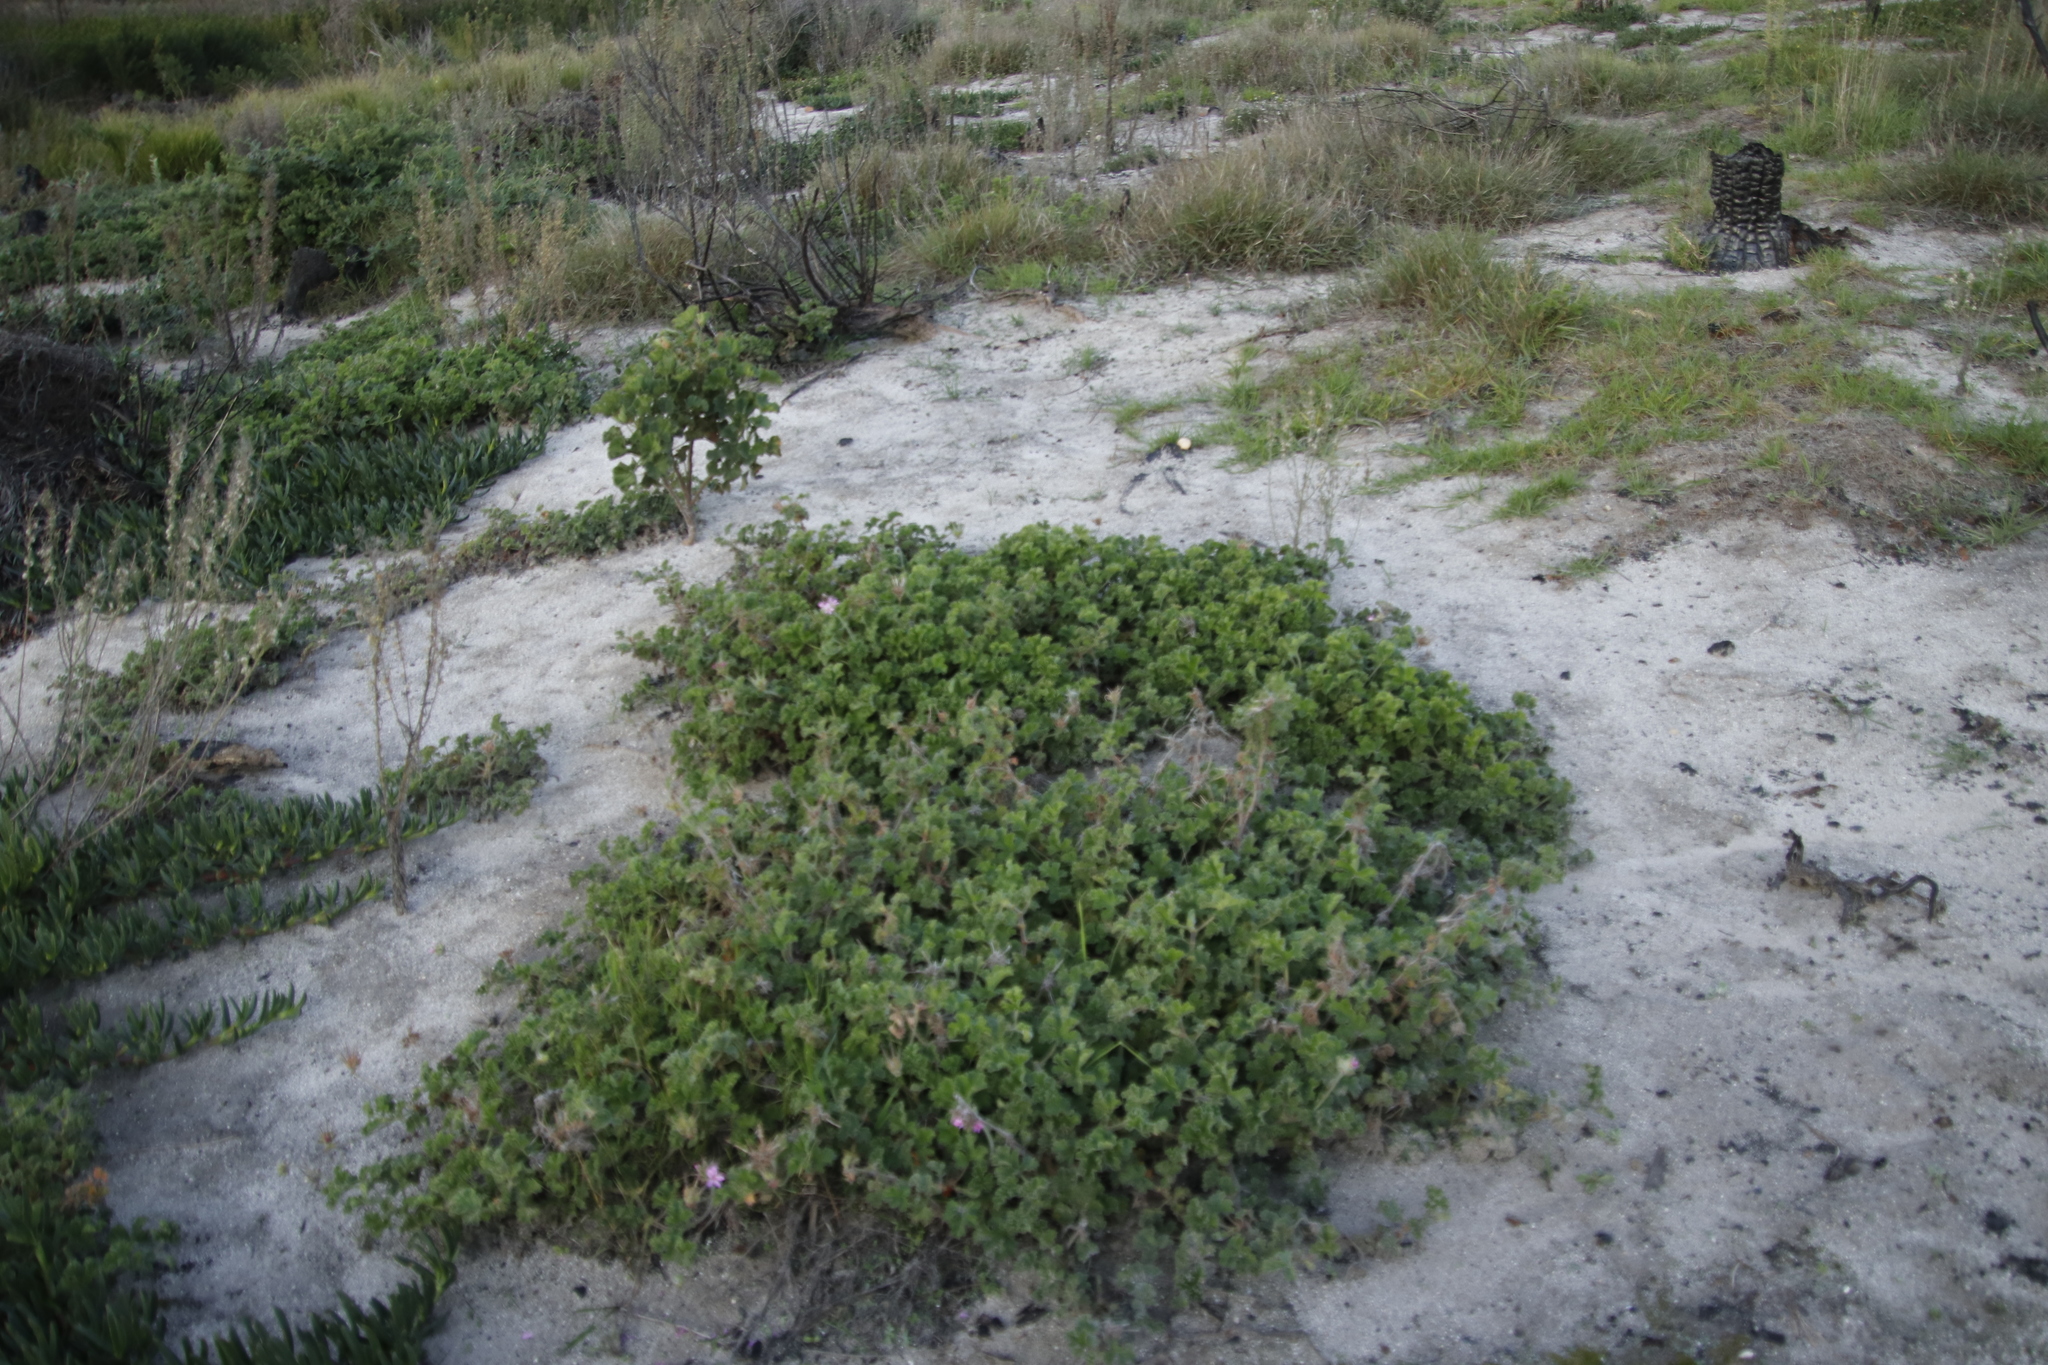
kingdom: Plantae
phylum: Tracheophyta
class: Magnoliopsida
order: Geraniales
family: Geraniaceae
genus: Pelargonium
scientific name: Pelargonium capitatum
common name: Rose scented geranium
